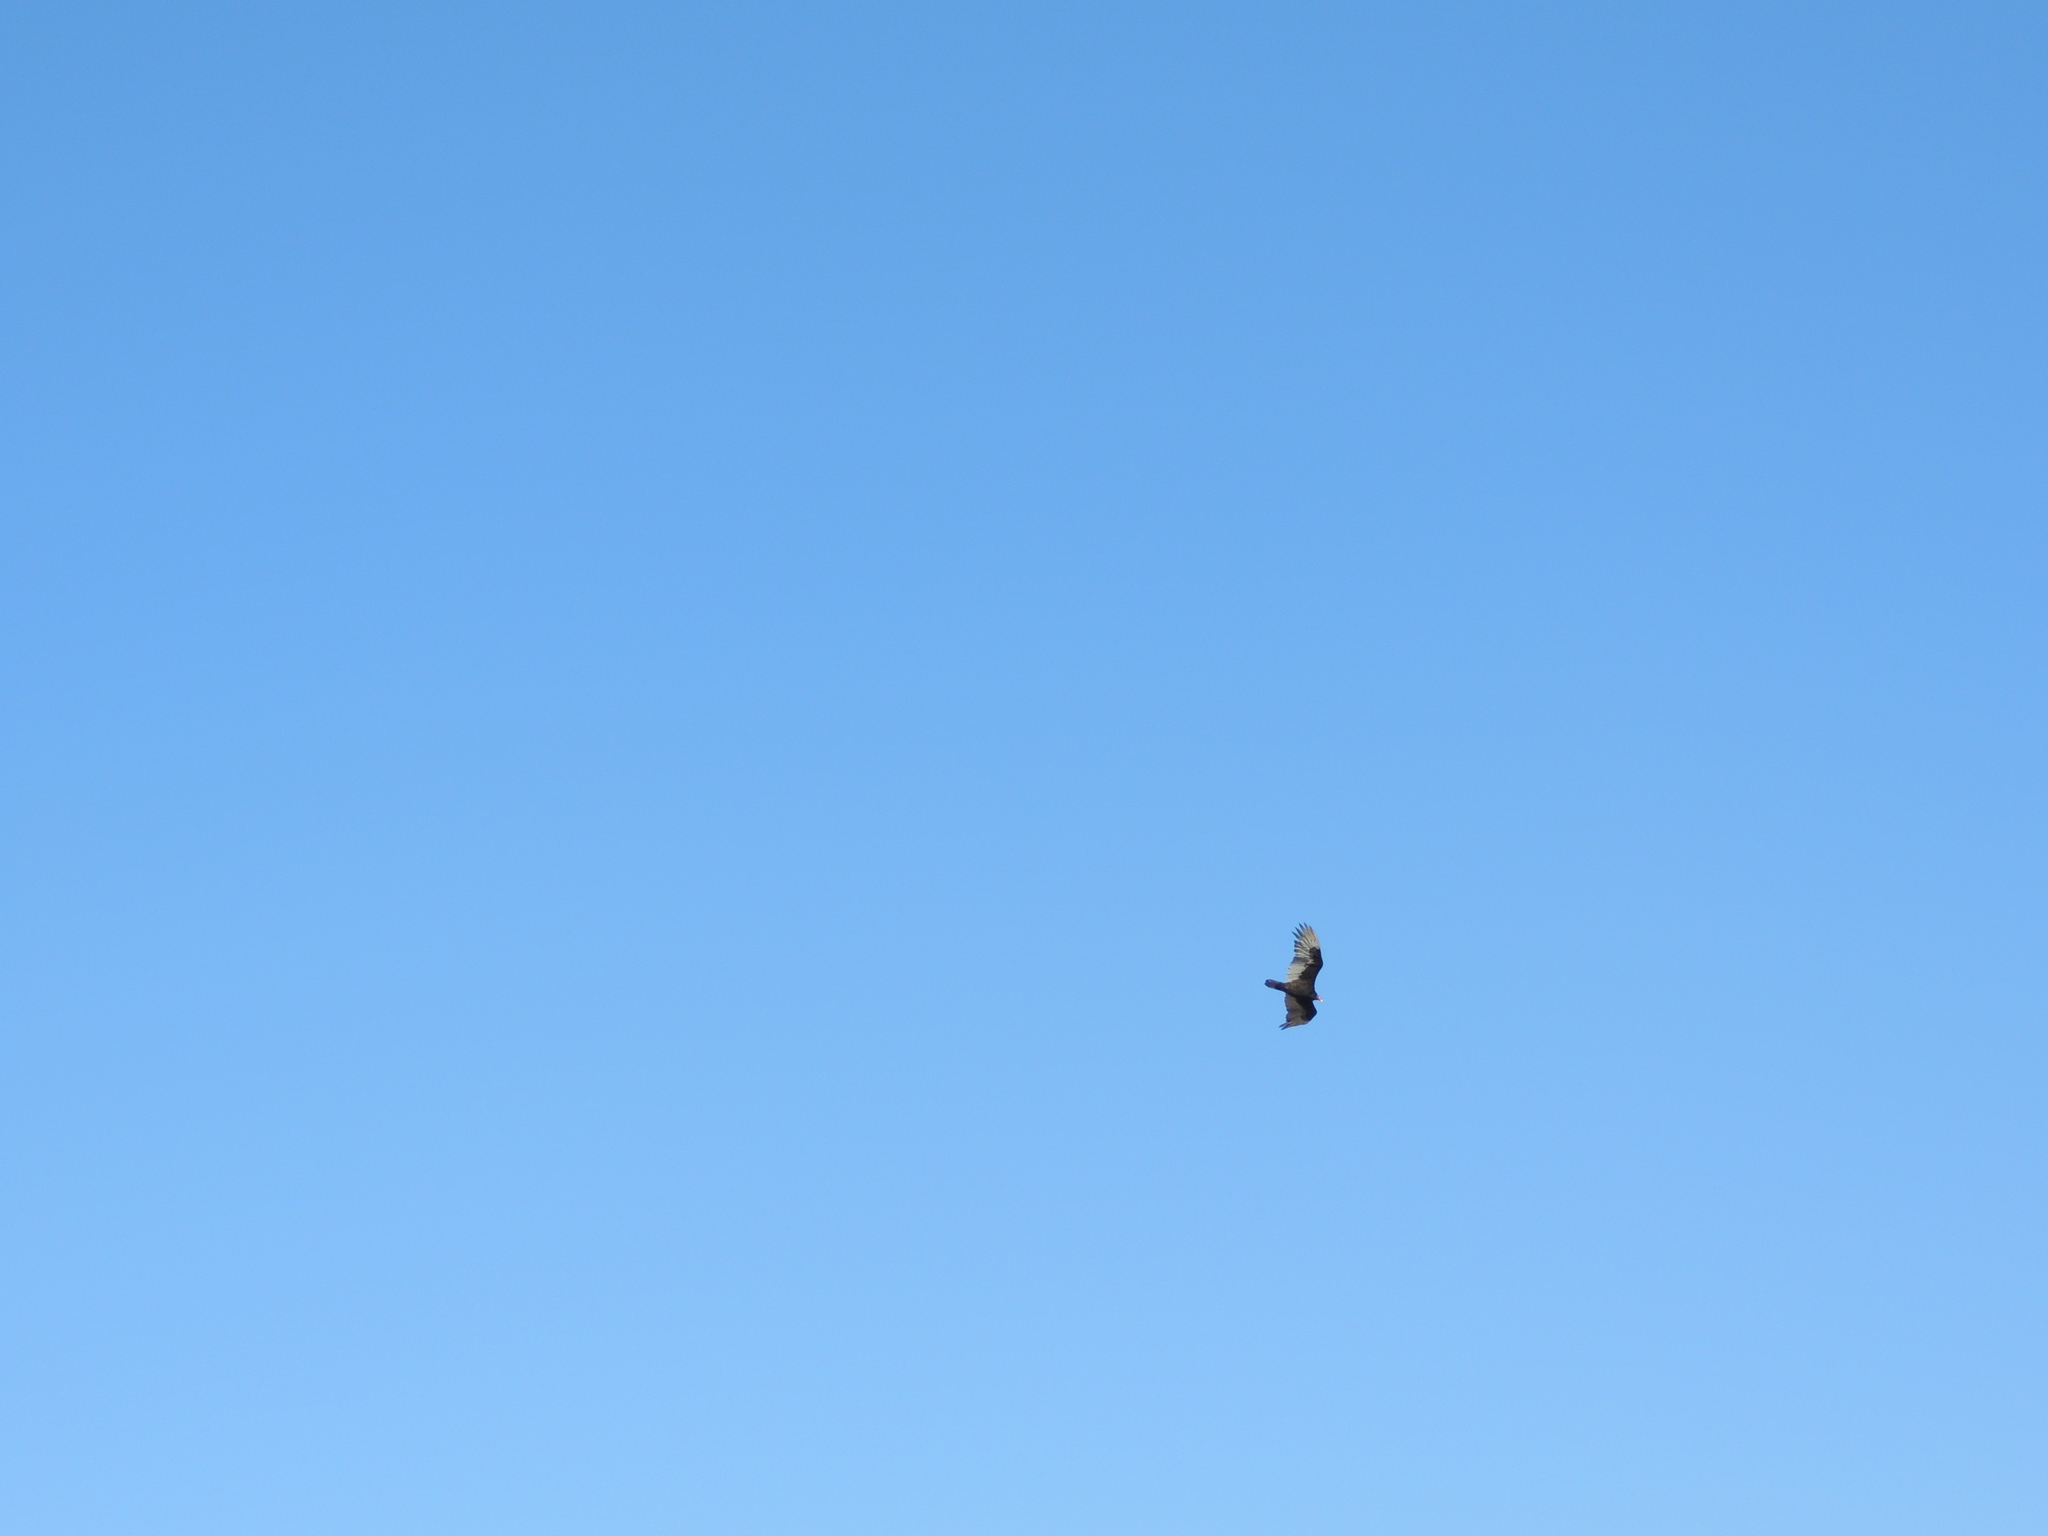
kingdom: Animalia
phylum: Chordata
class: Aves
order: Accipitriformes
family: Cathartidae
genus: Cathartes
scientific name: Cathartes aura
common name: Turkey vulture
